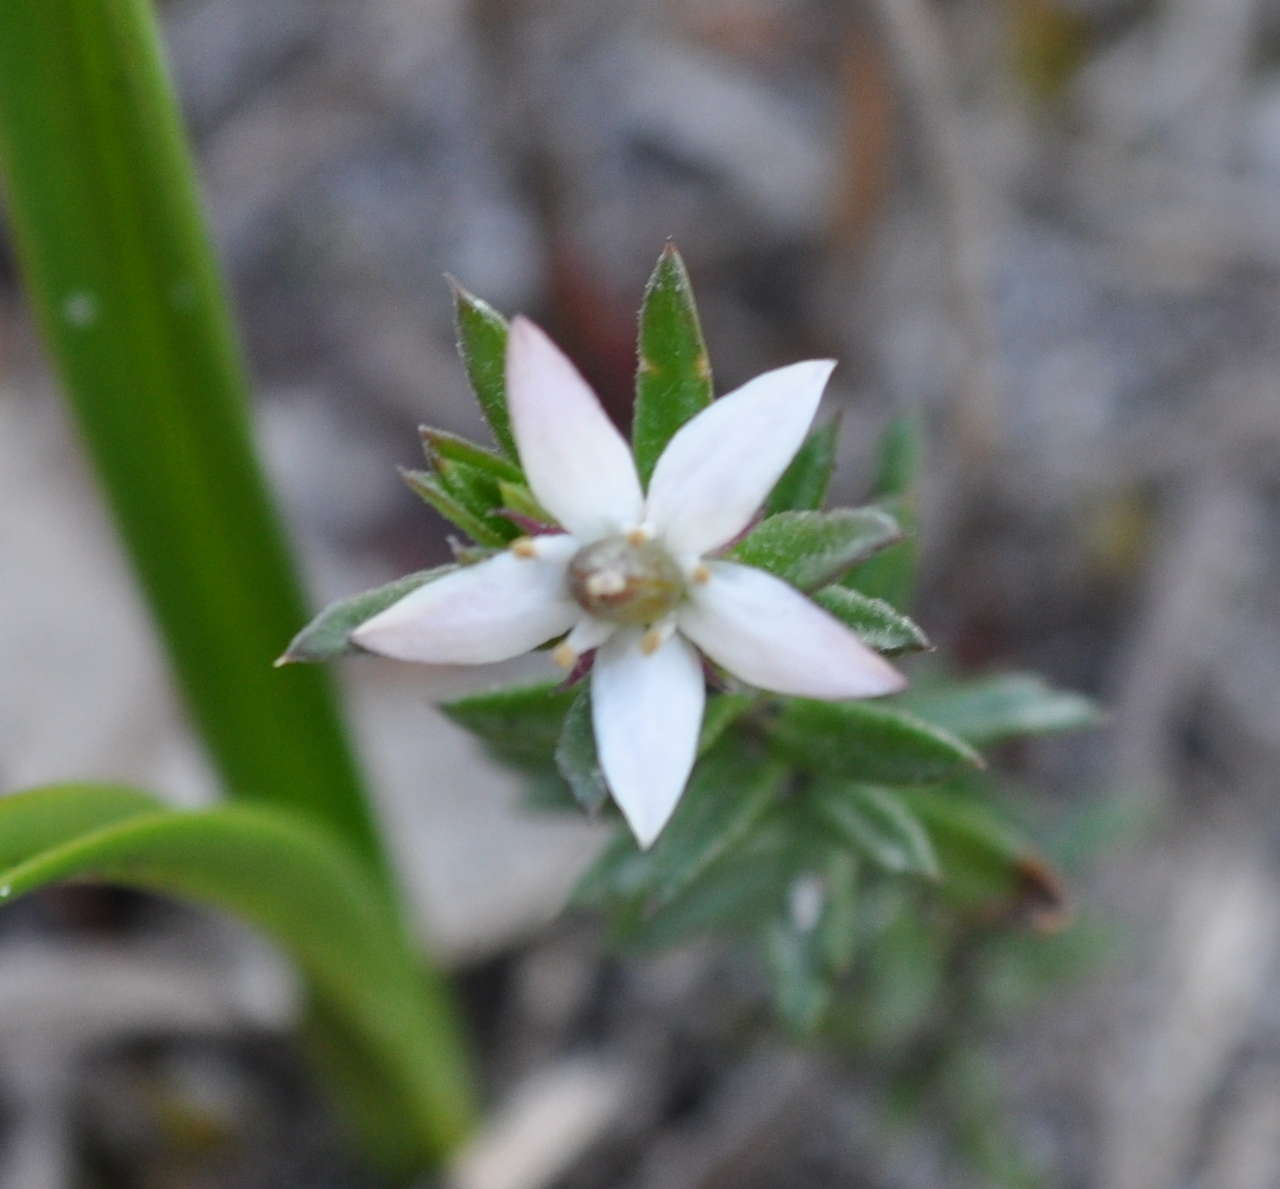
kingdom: Plantae
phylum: Tracheophyta
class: Magnoliopsida
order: Apiales
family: Pittosporaceae
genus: Rhytidosporum
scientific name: Rhytidosporum procumbens
